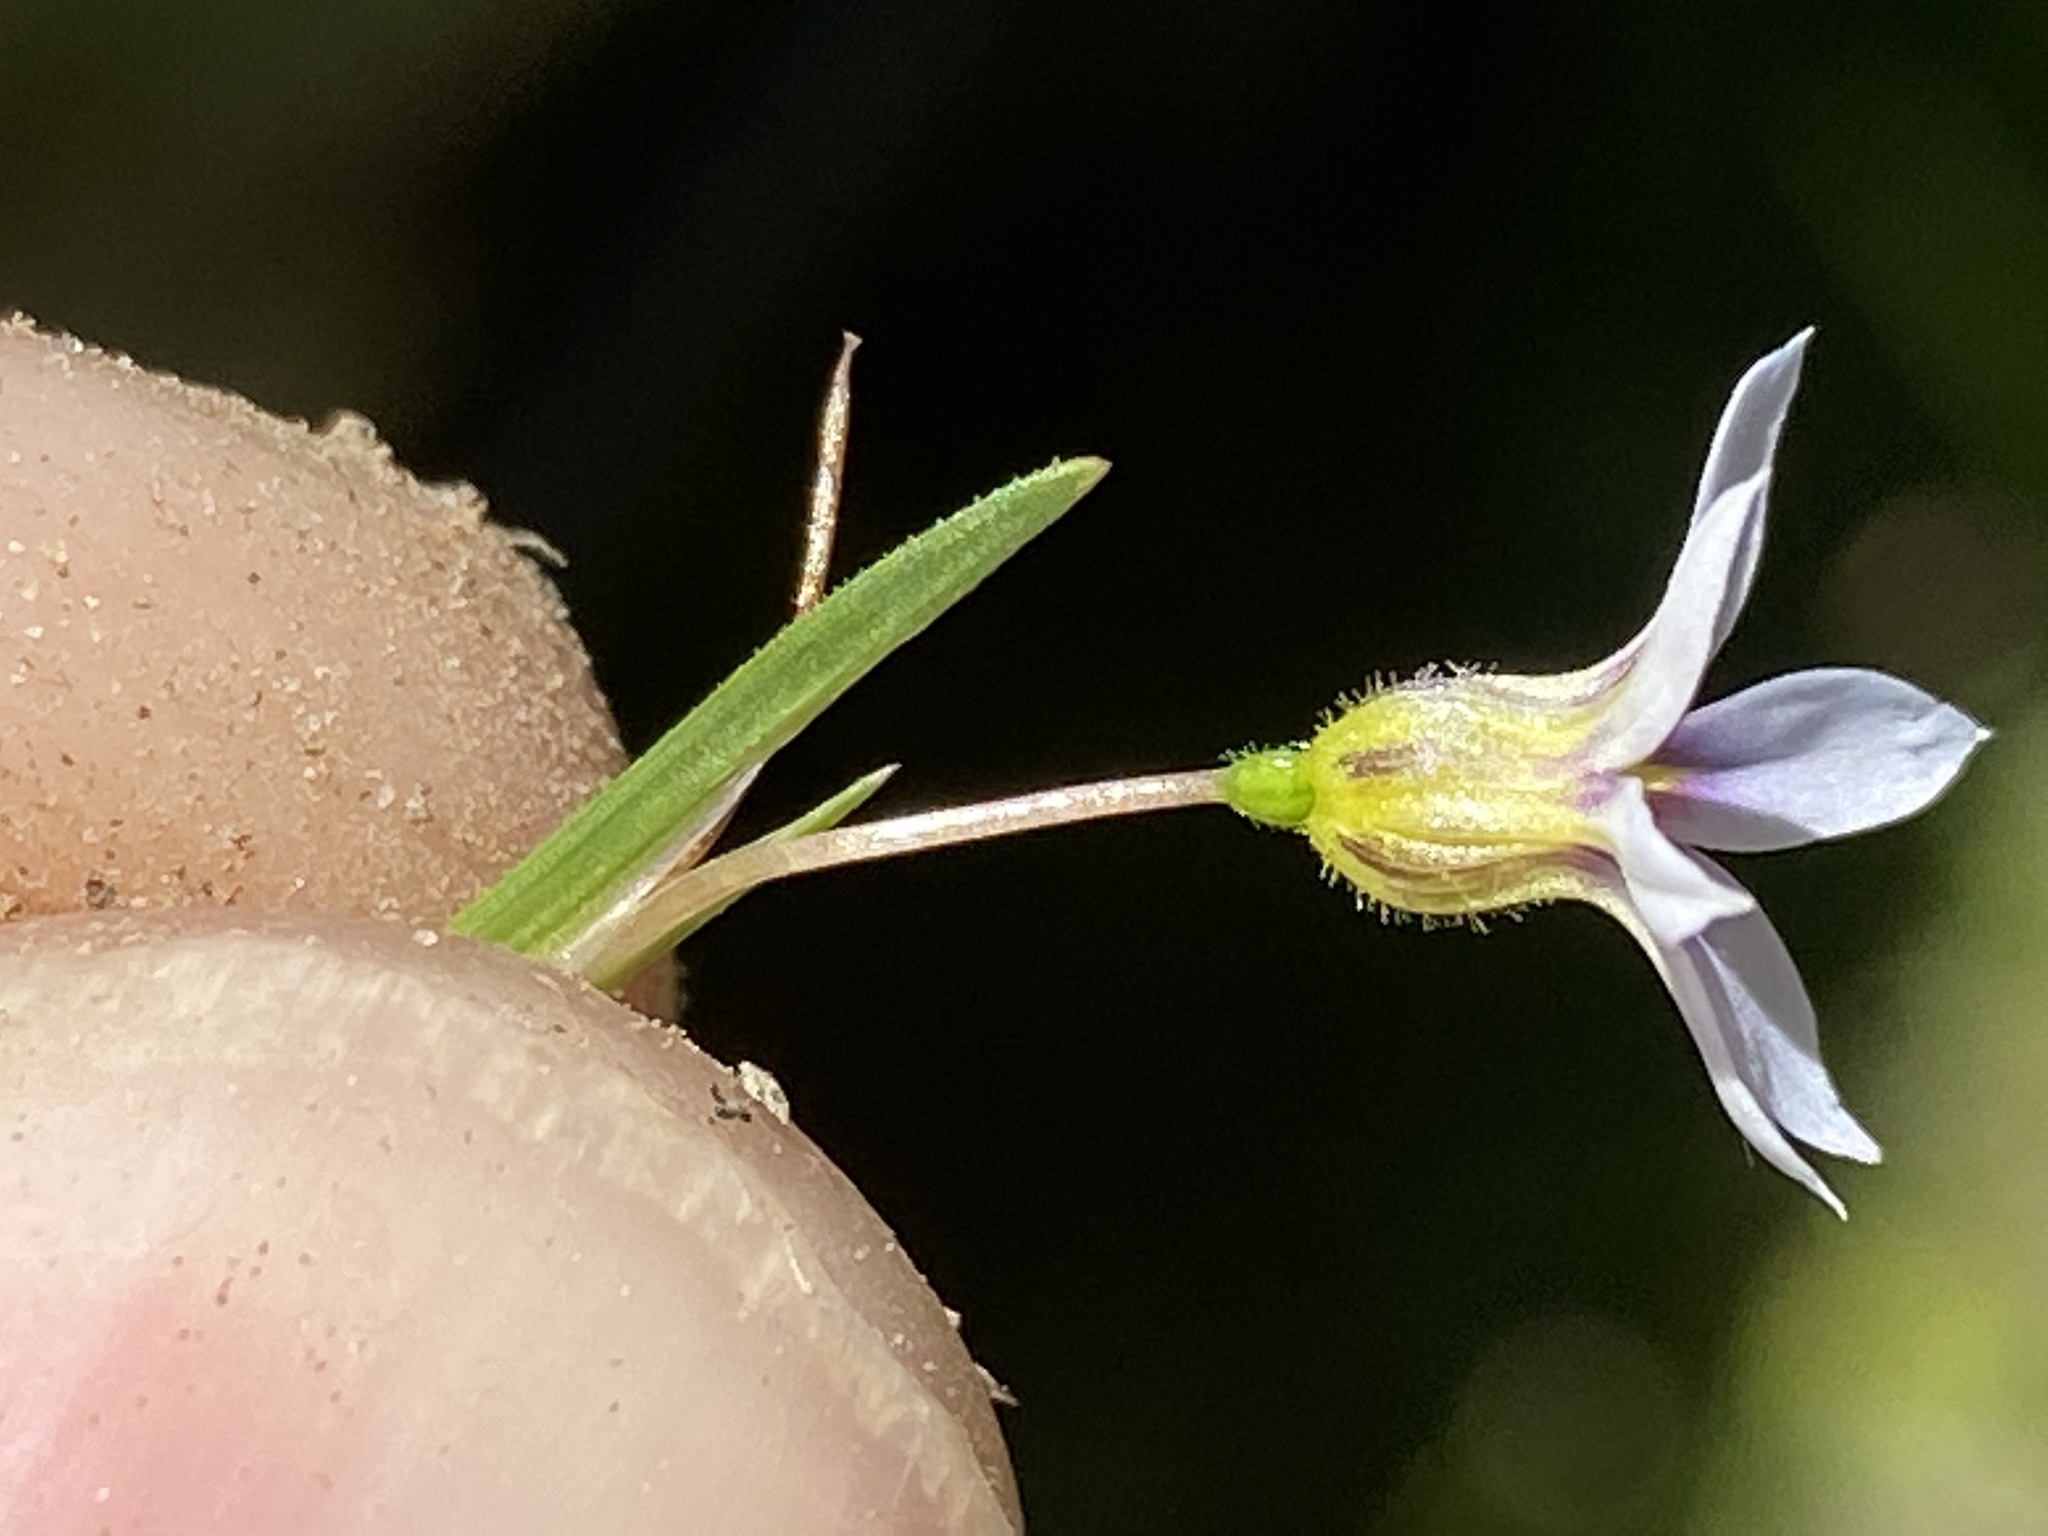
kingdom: Plantae
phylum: Tracheophyta
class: Liliopsida
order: Asparagales
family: Iridaceae
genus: Sisyrinchium
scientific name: Sisyrinchium micranthum
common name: Bermuda pigroot
